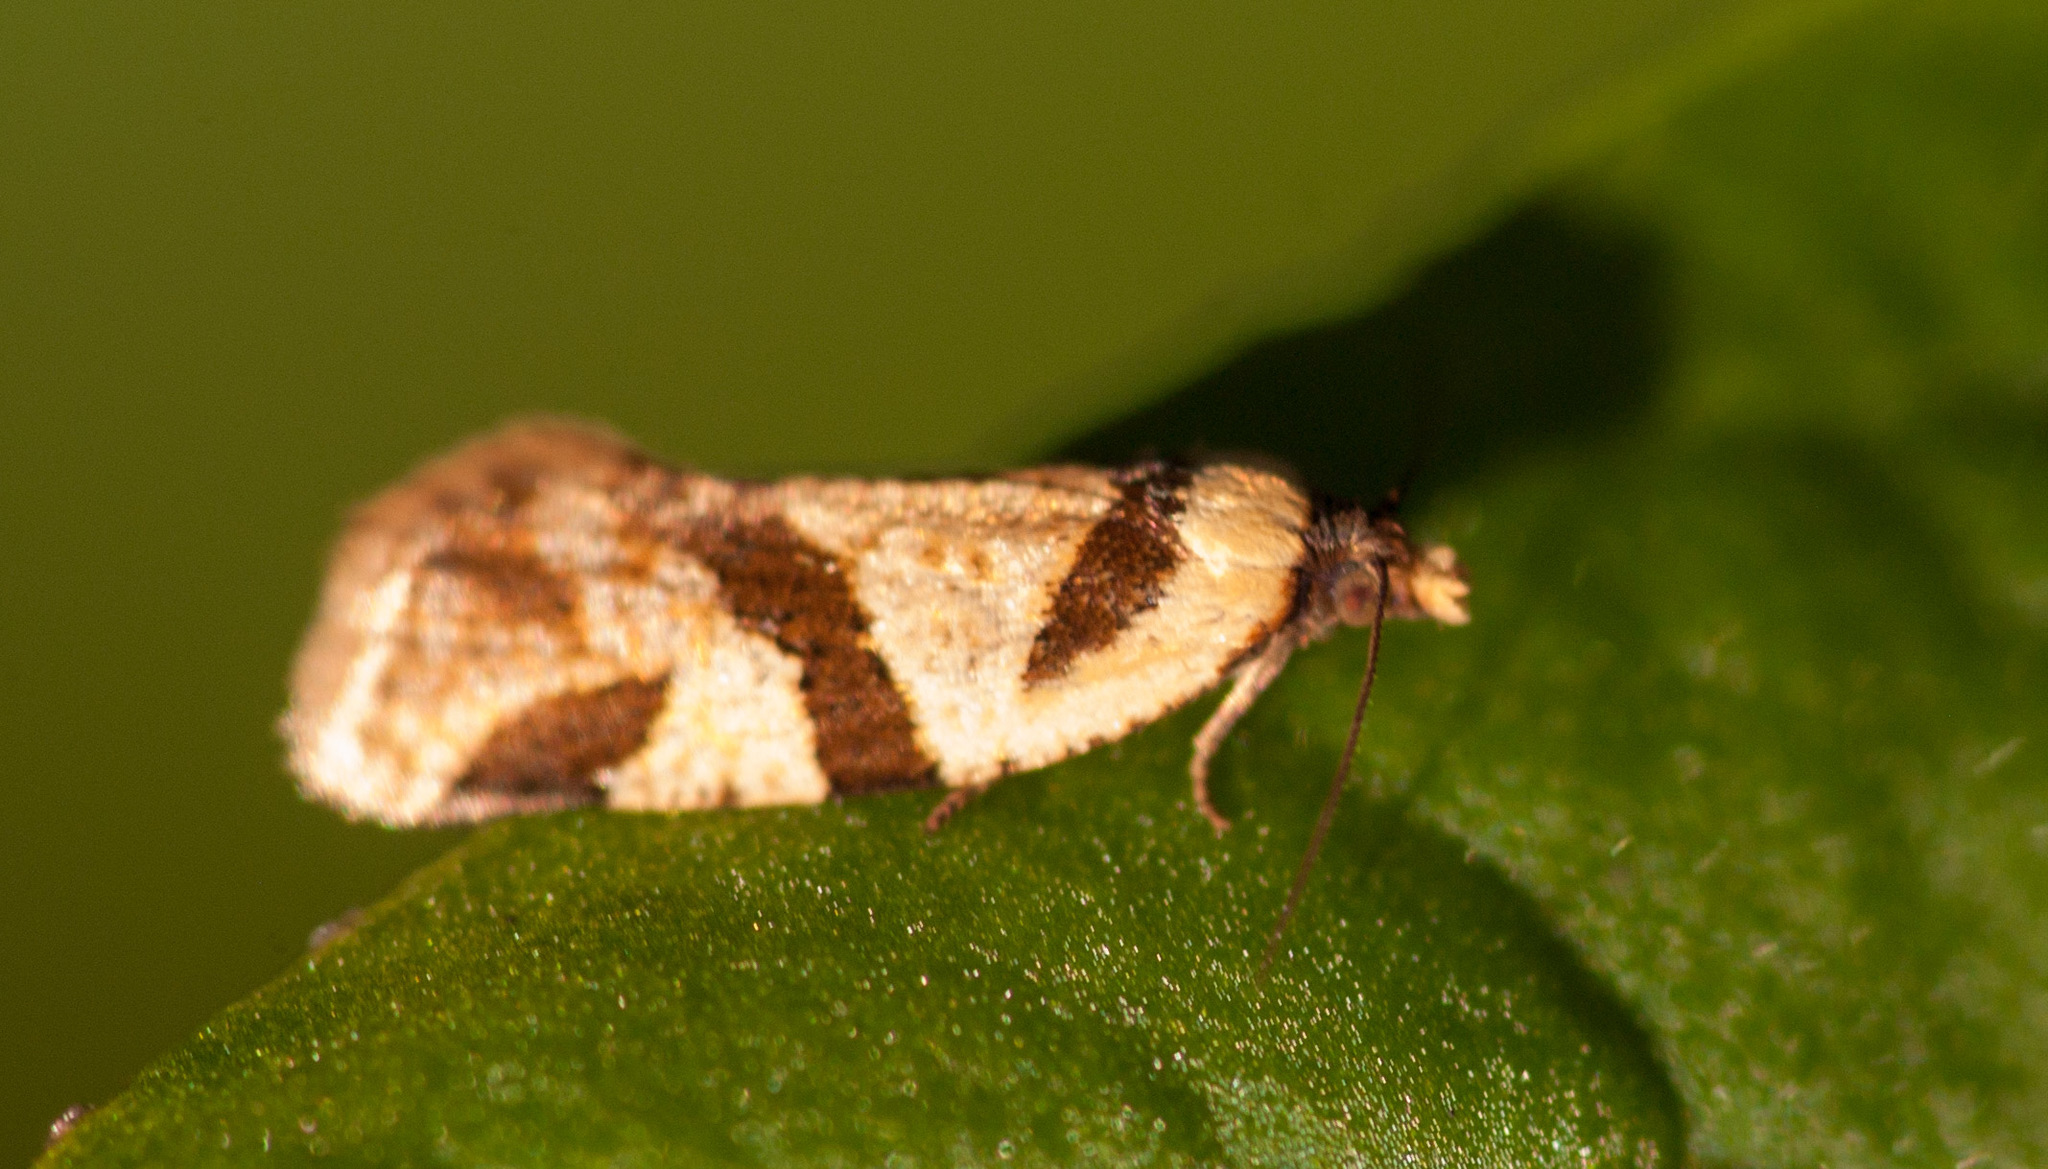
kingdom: Animalia
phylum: Arthropoda
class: Insecta
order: Lepidoptera
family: Tortricidae
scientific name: Tortricidae
